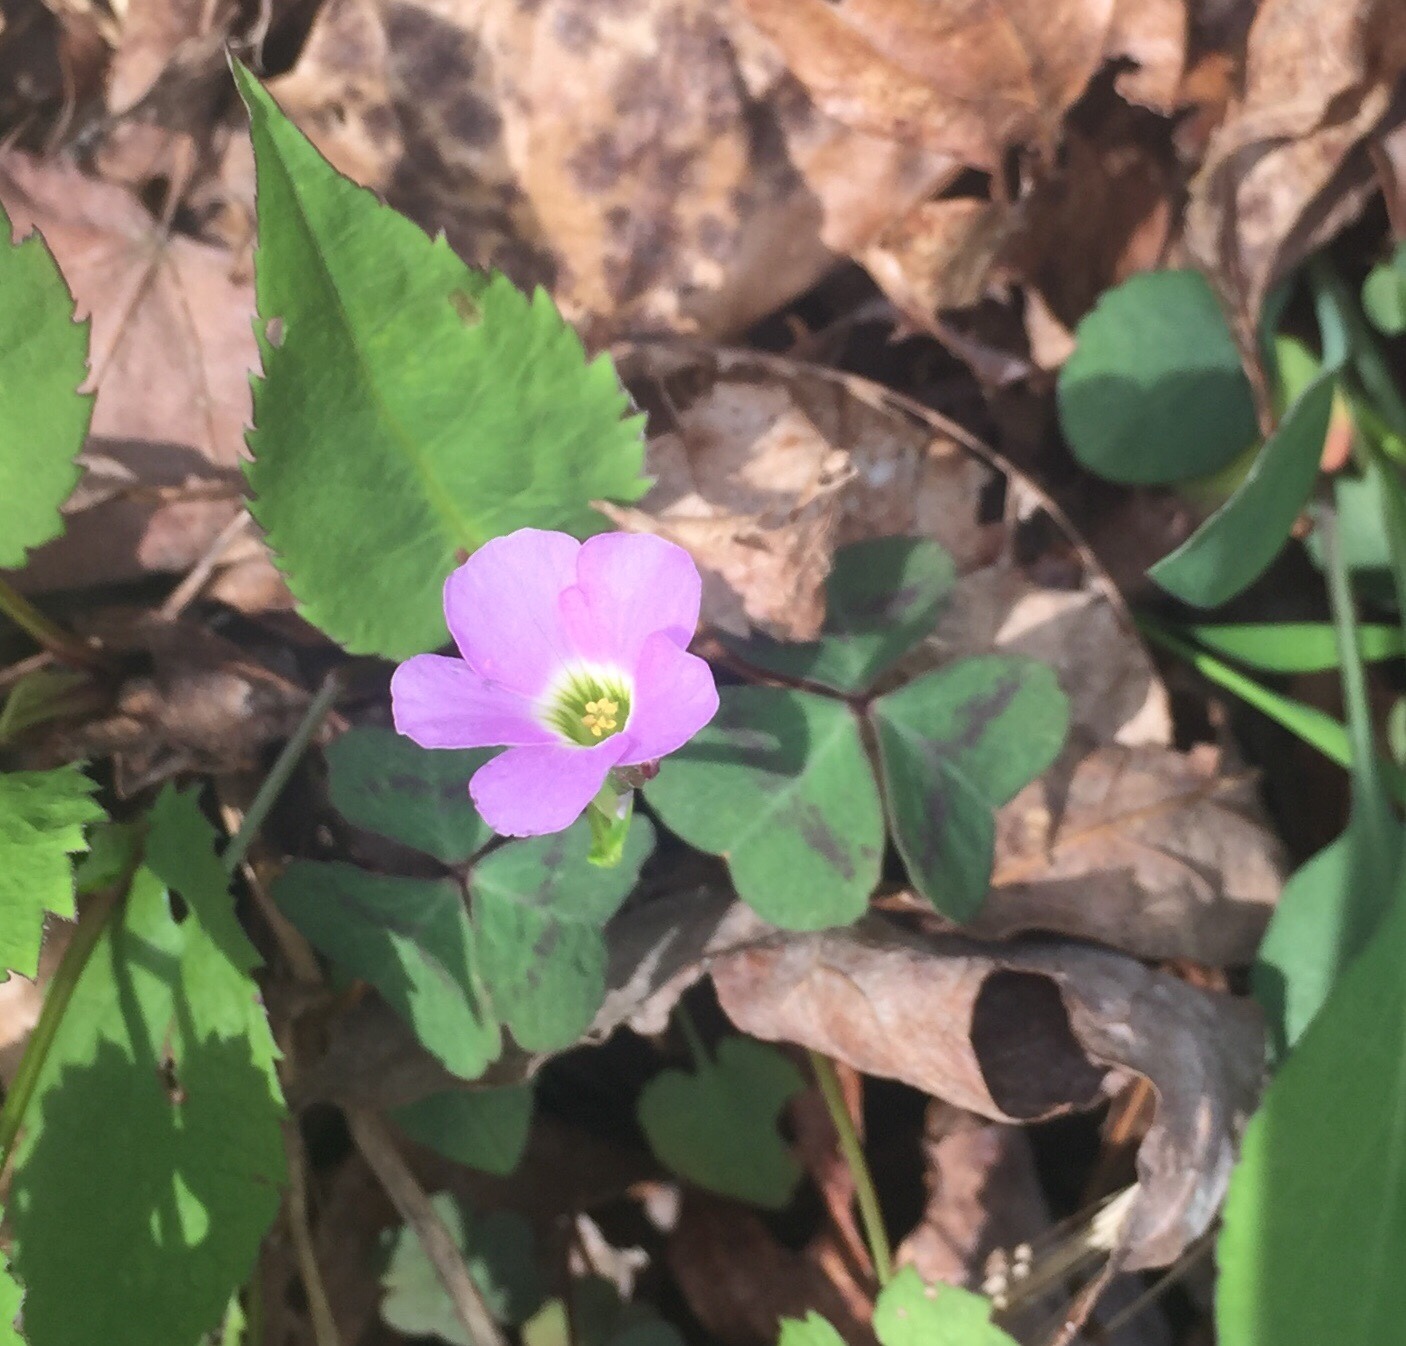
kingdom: Plantae
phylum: Tracheophyta
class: Magnoliopsida
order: Oxalidales
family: Oxalidaceae
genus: Oxalis
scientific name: Oxalis violacea
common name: Violet wood-sorrel
